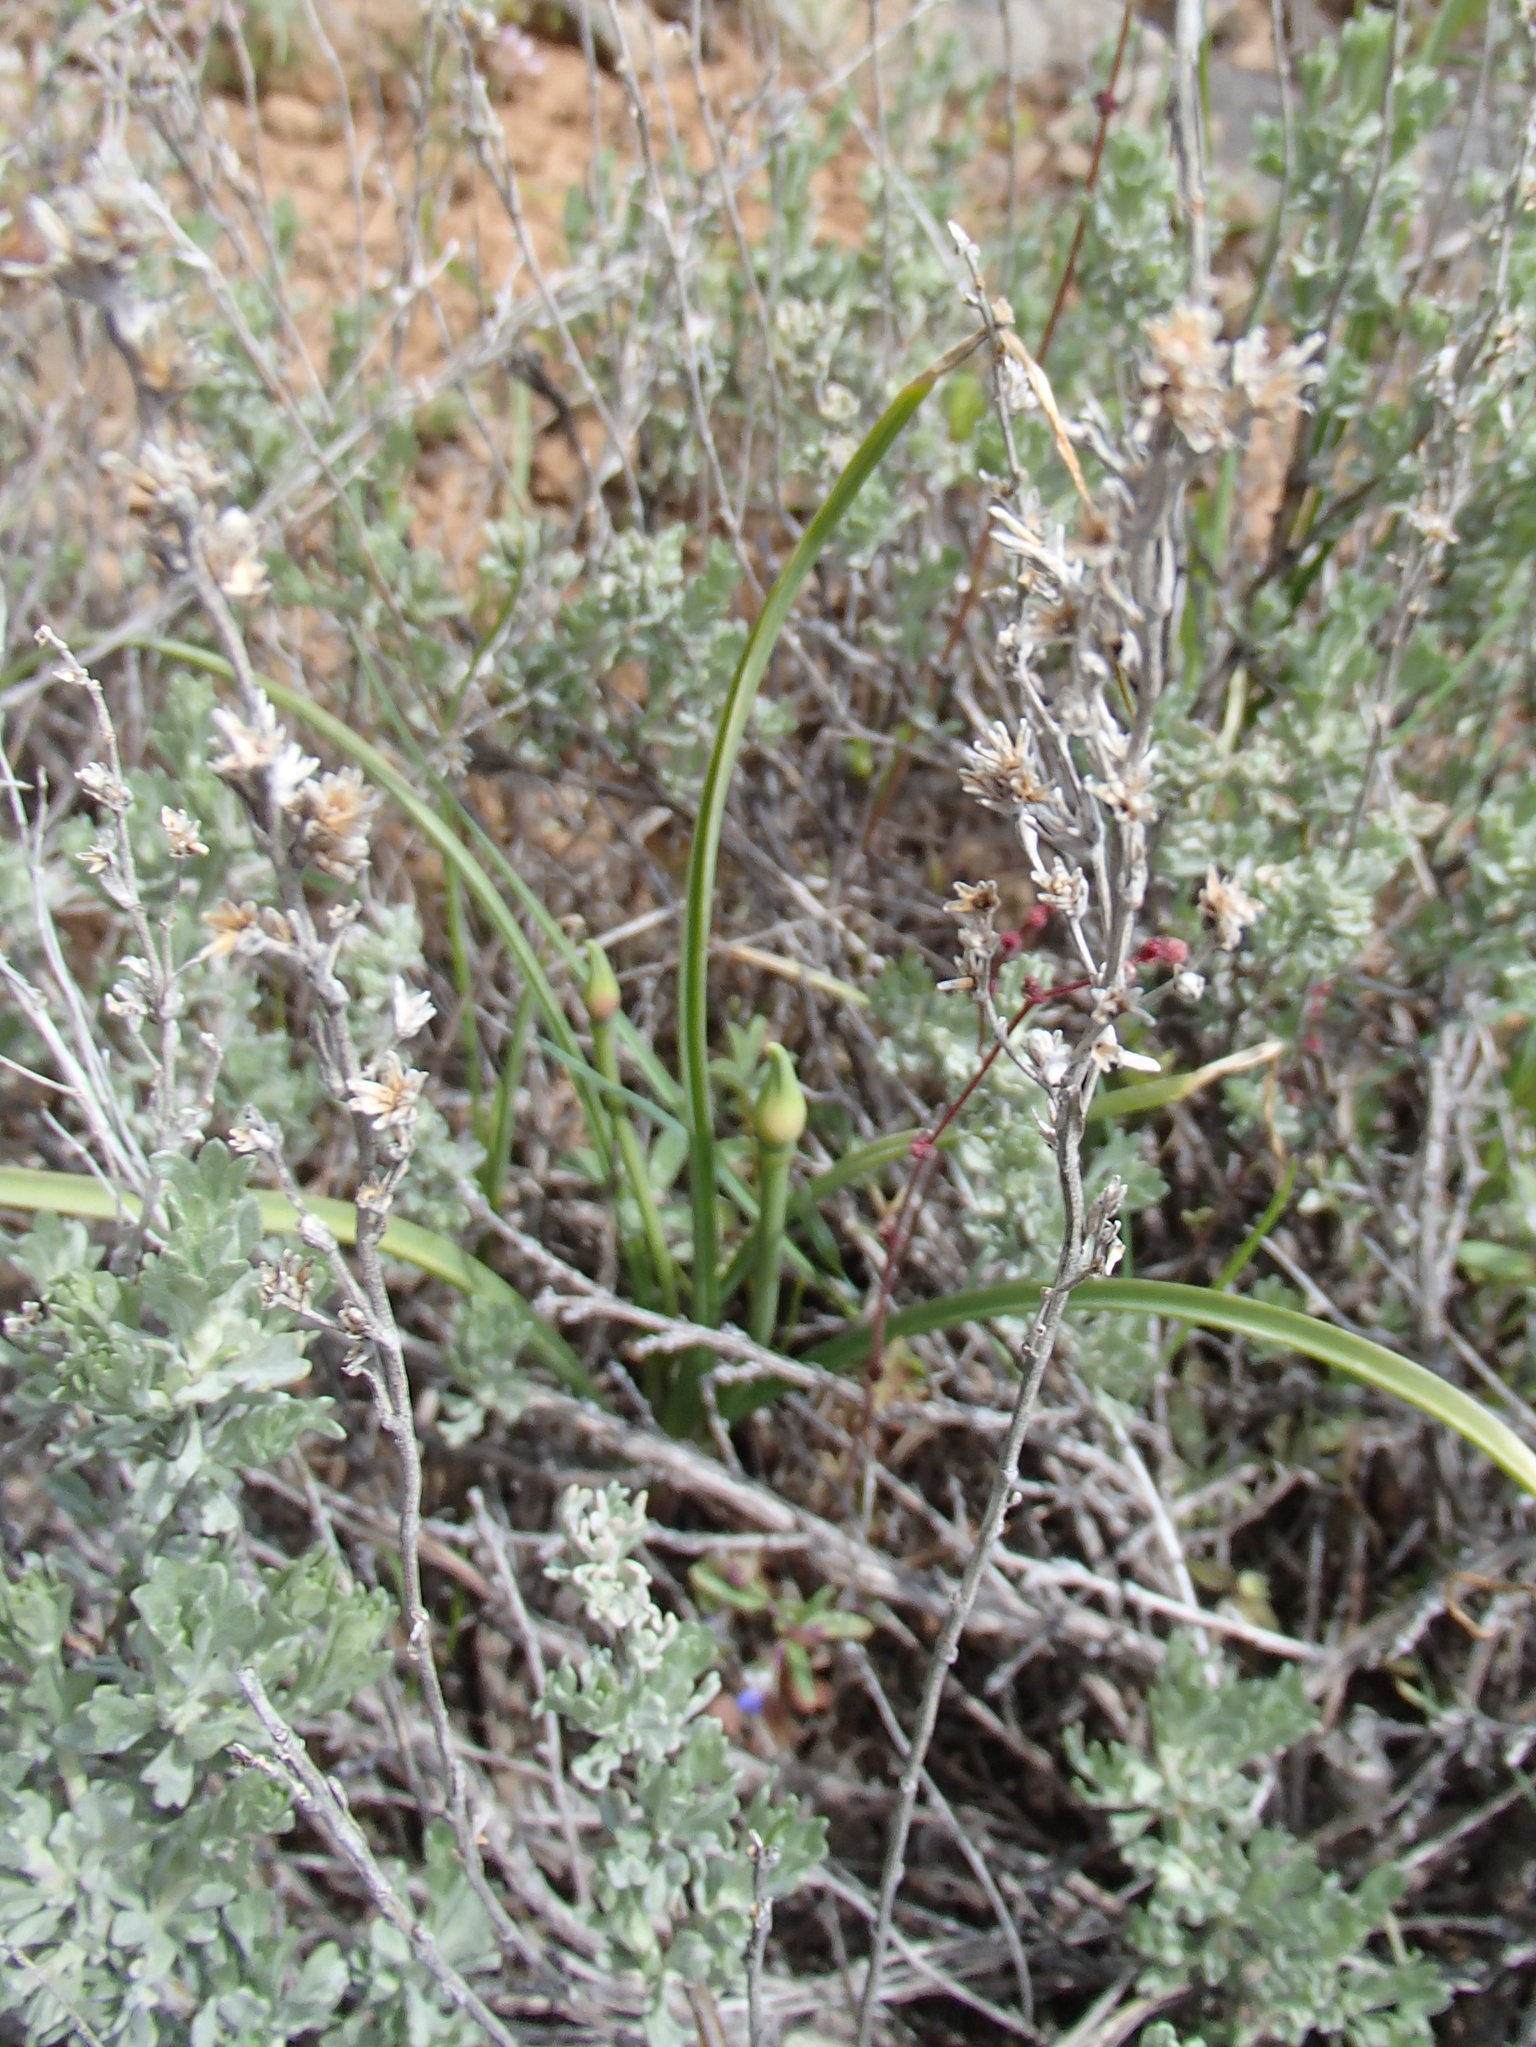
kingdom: Plantae
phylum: Tracheophyta
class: Magnoliopsida
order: Asterales
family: Asteraceae
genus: Artemisia
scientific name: Artemisia arbuscula
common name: Sagebrush
